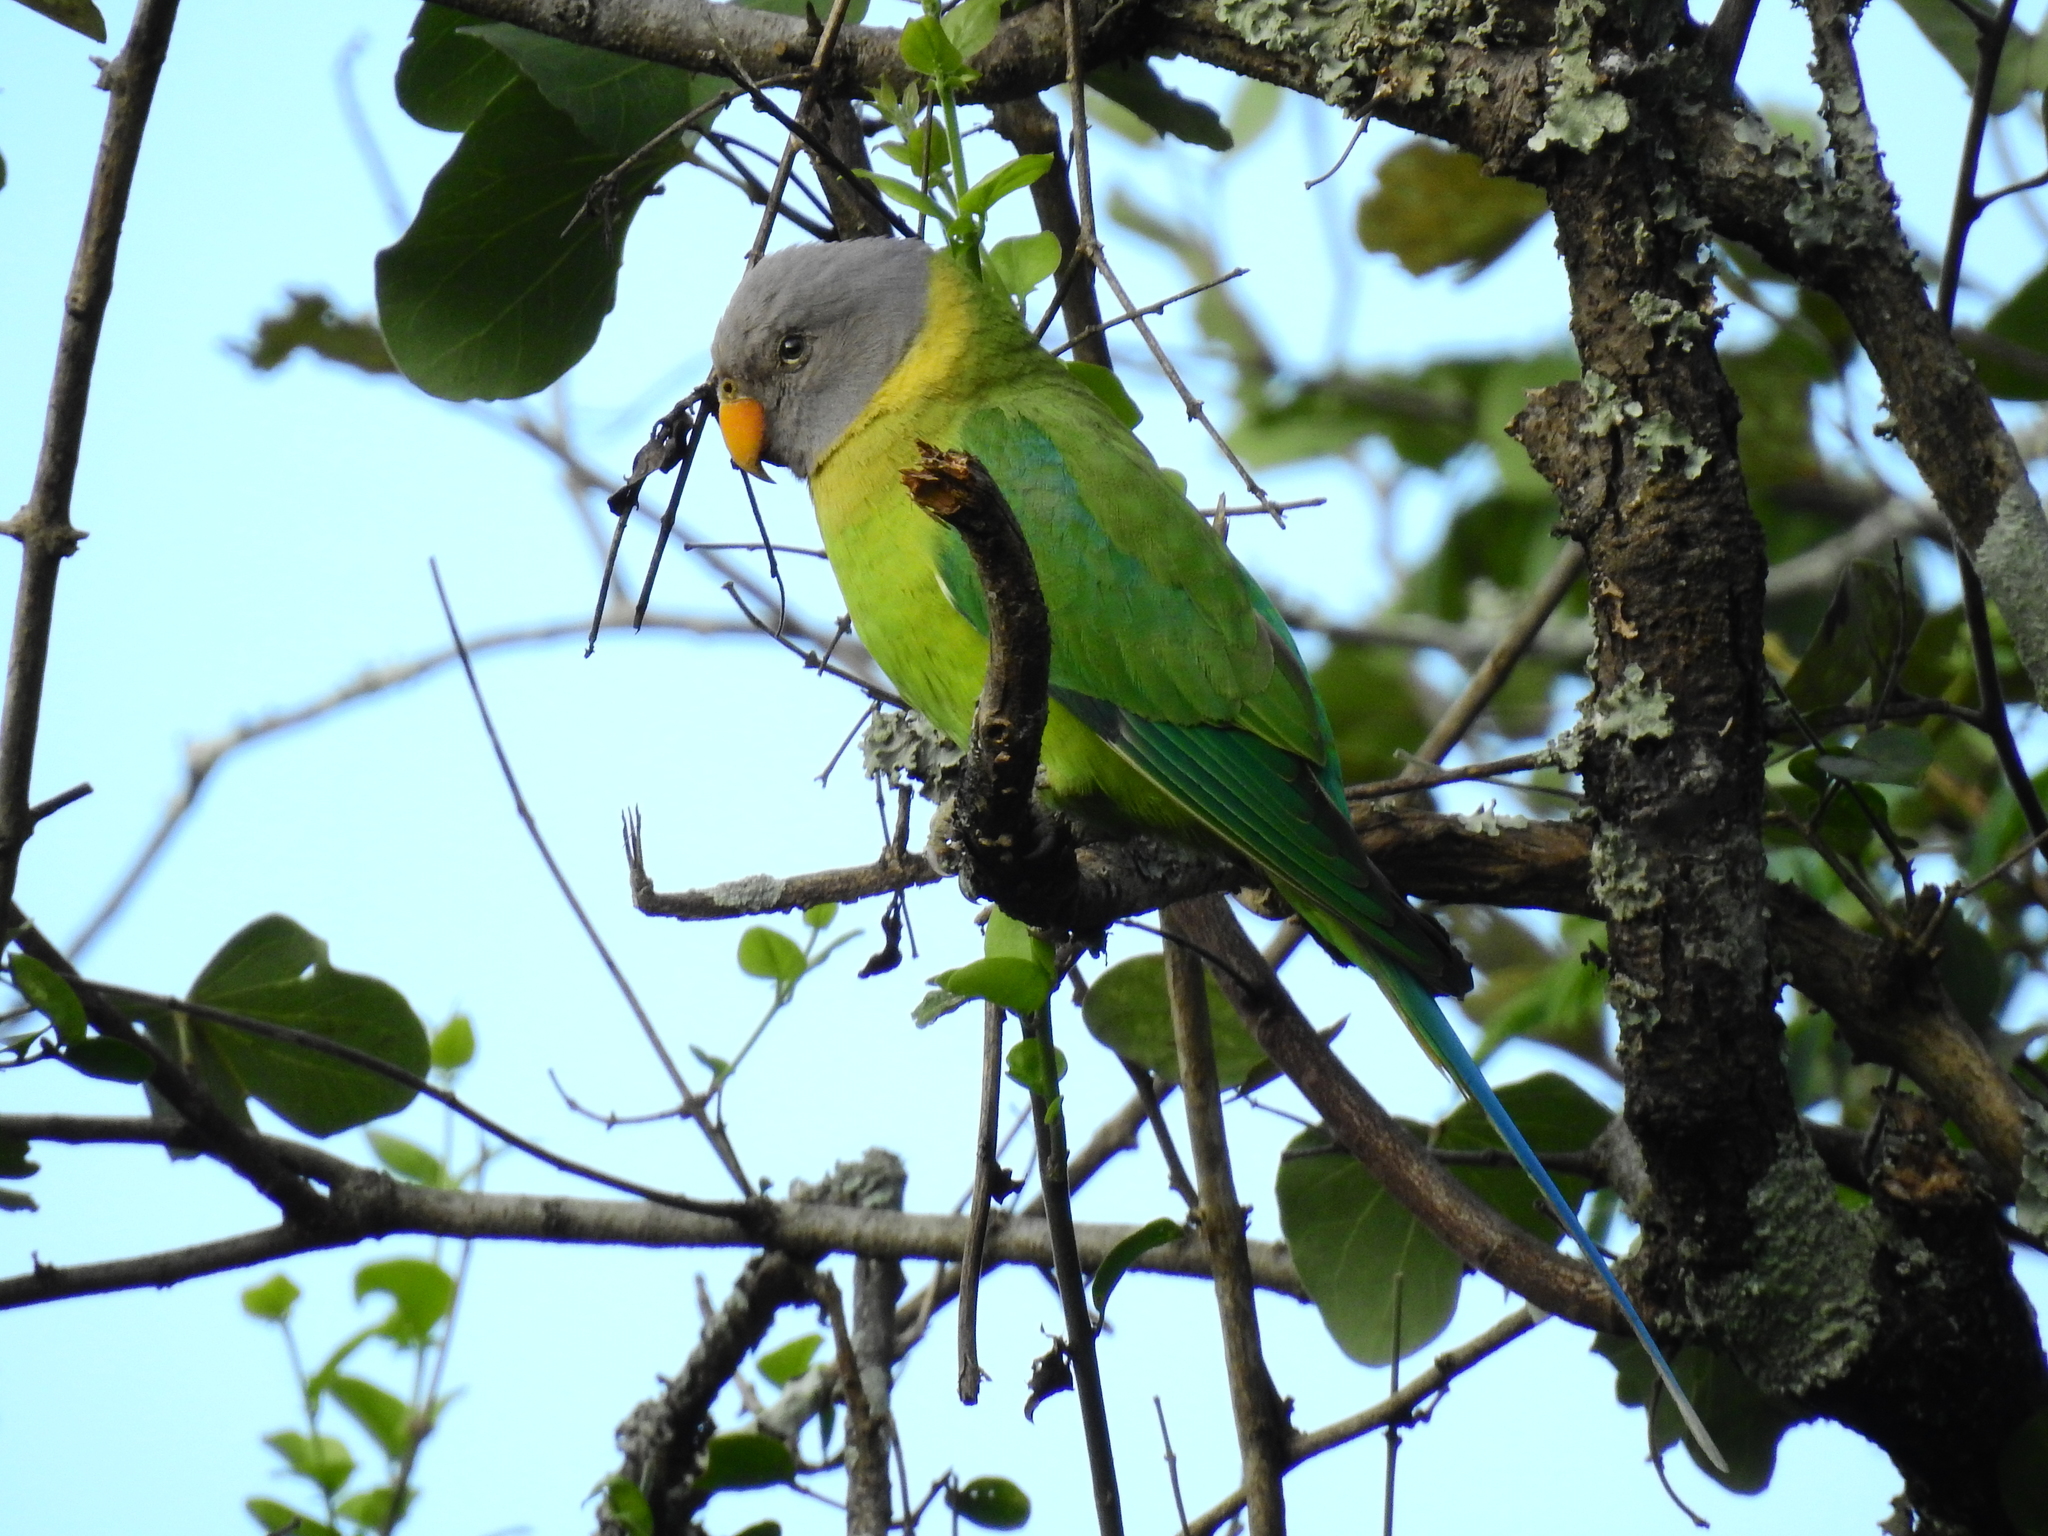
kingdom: Animalia
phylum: Chordata
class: Aves
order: Psittaciformes
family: Psittacidae
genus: Psittacula
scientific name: Psittacula cyanocephala
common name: Plum-headed parakeet
